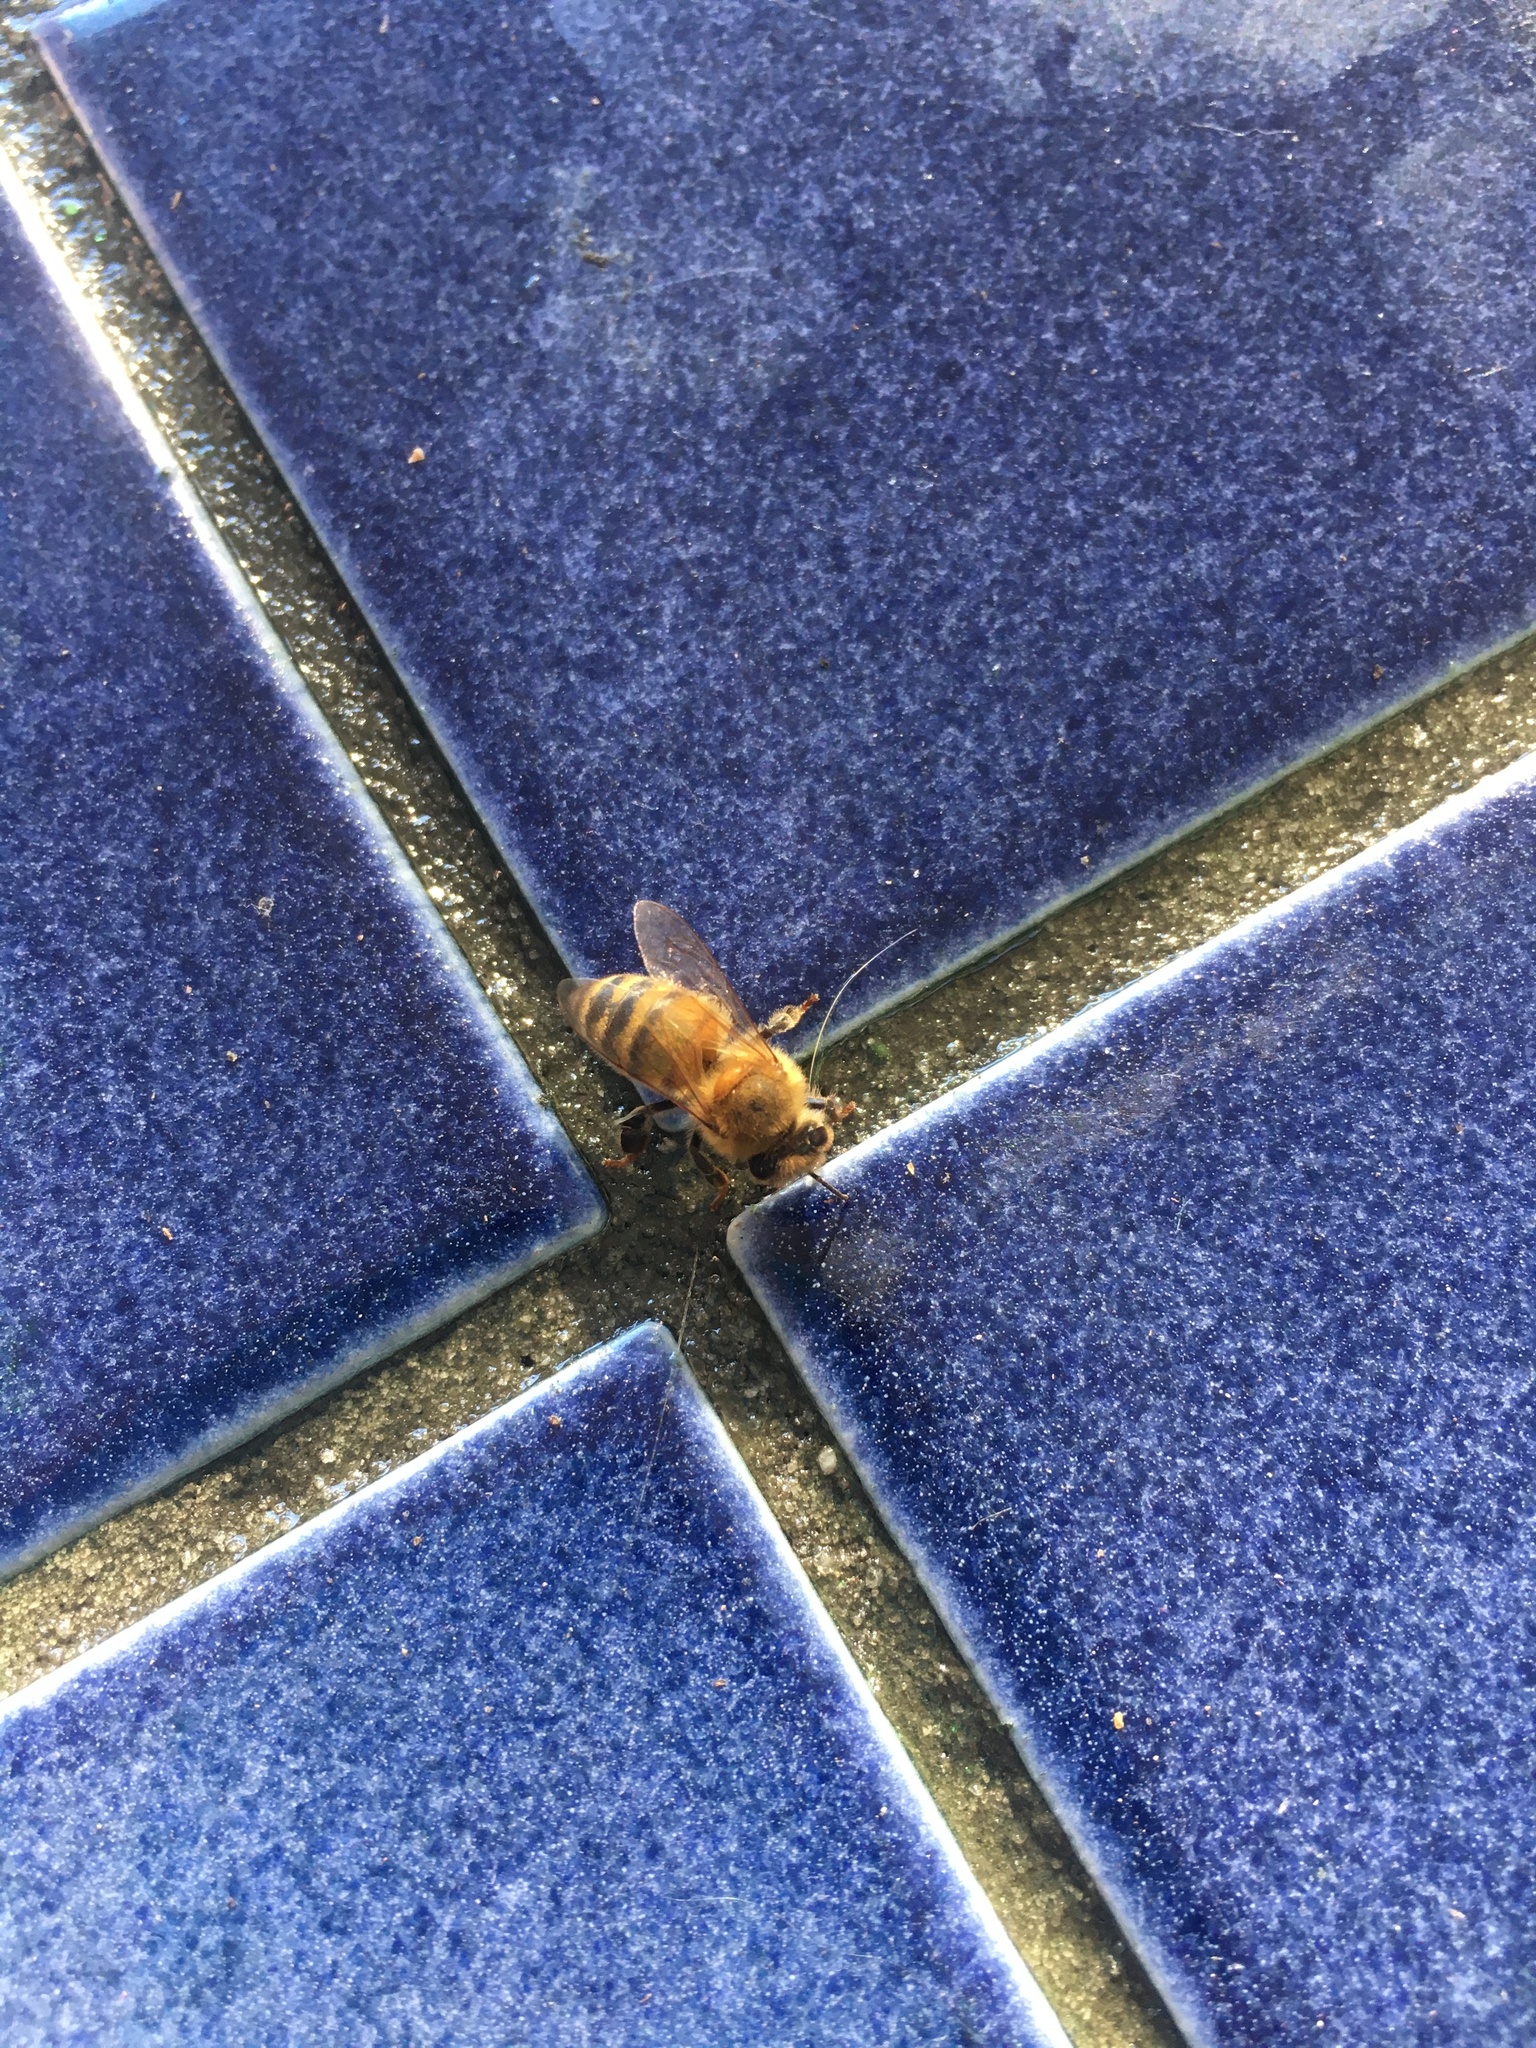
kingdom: Animalia
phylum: Arthropoda
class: Insecta
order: Hymenoptera
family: Apidae
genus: Apis
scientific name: Apis mellifera
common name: Honey bee
